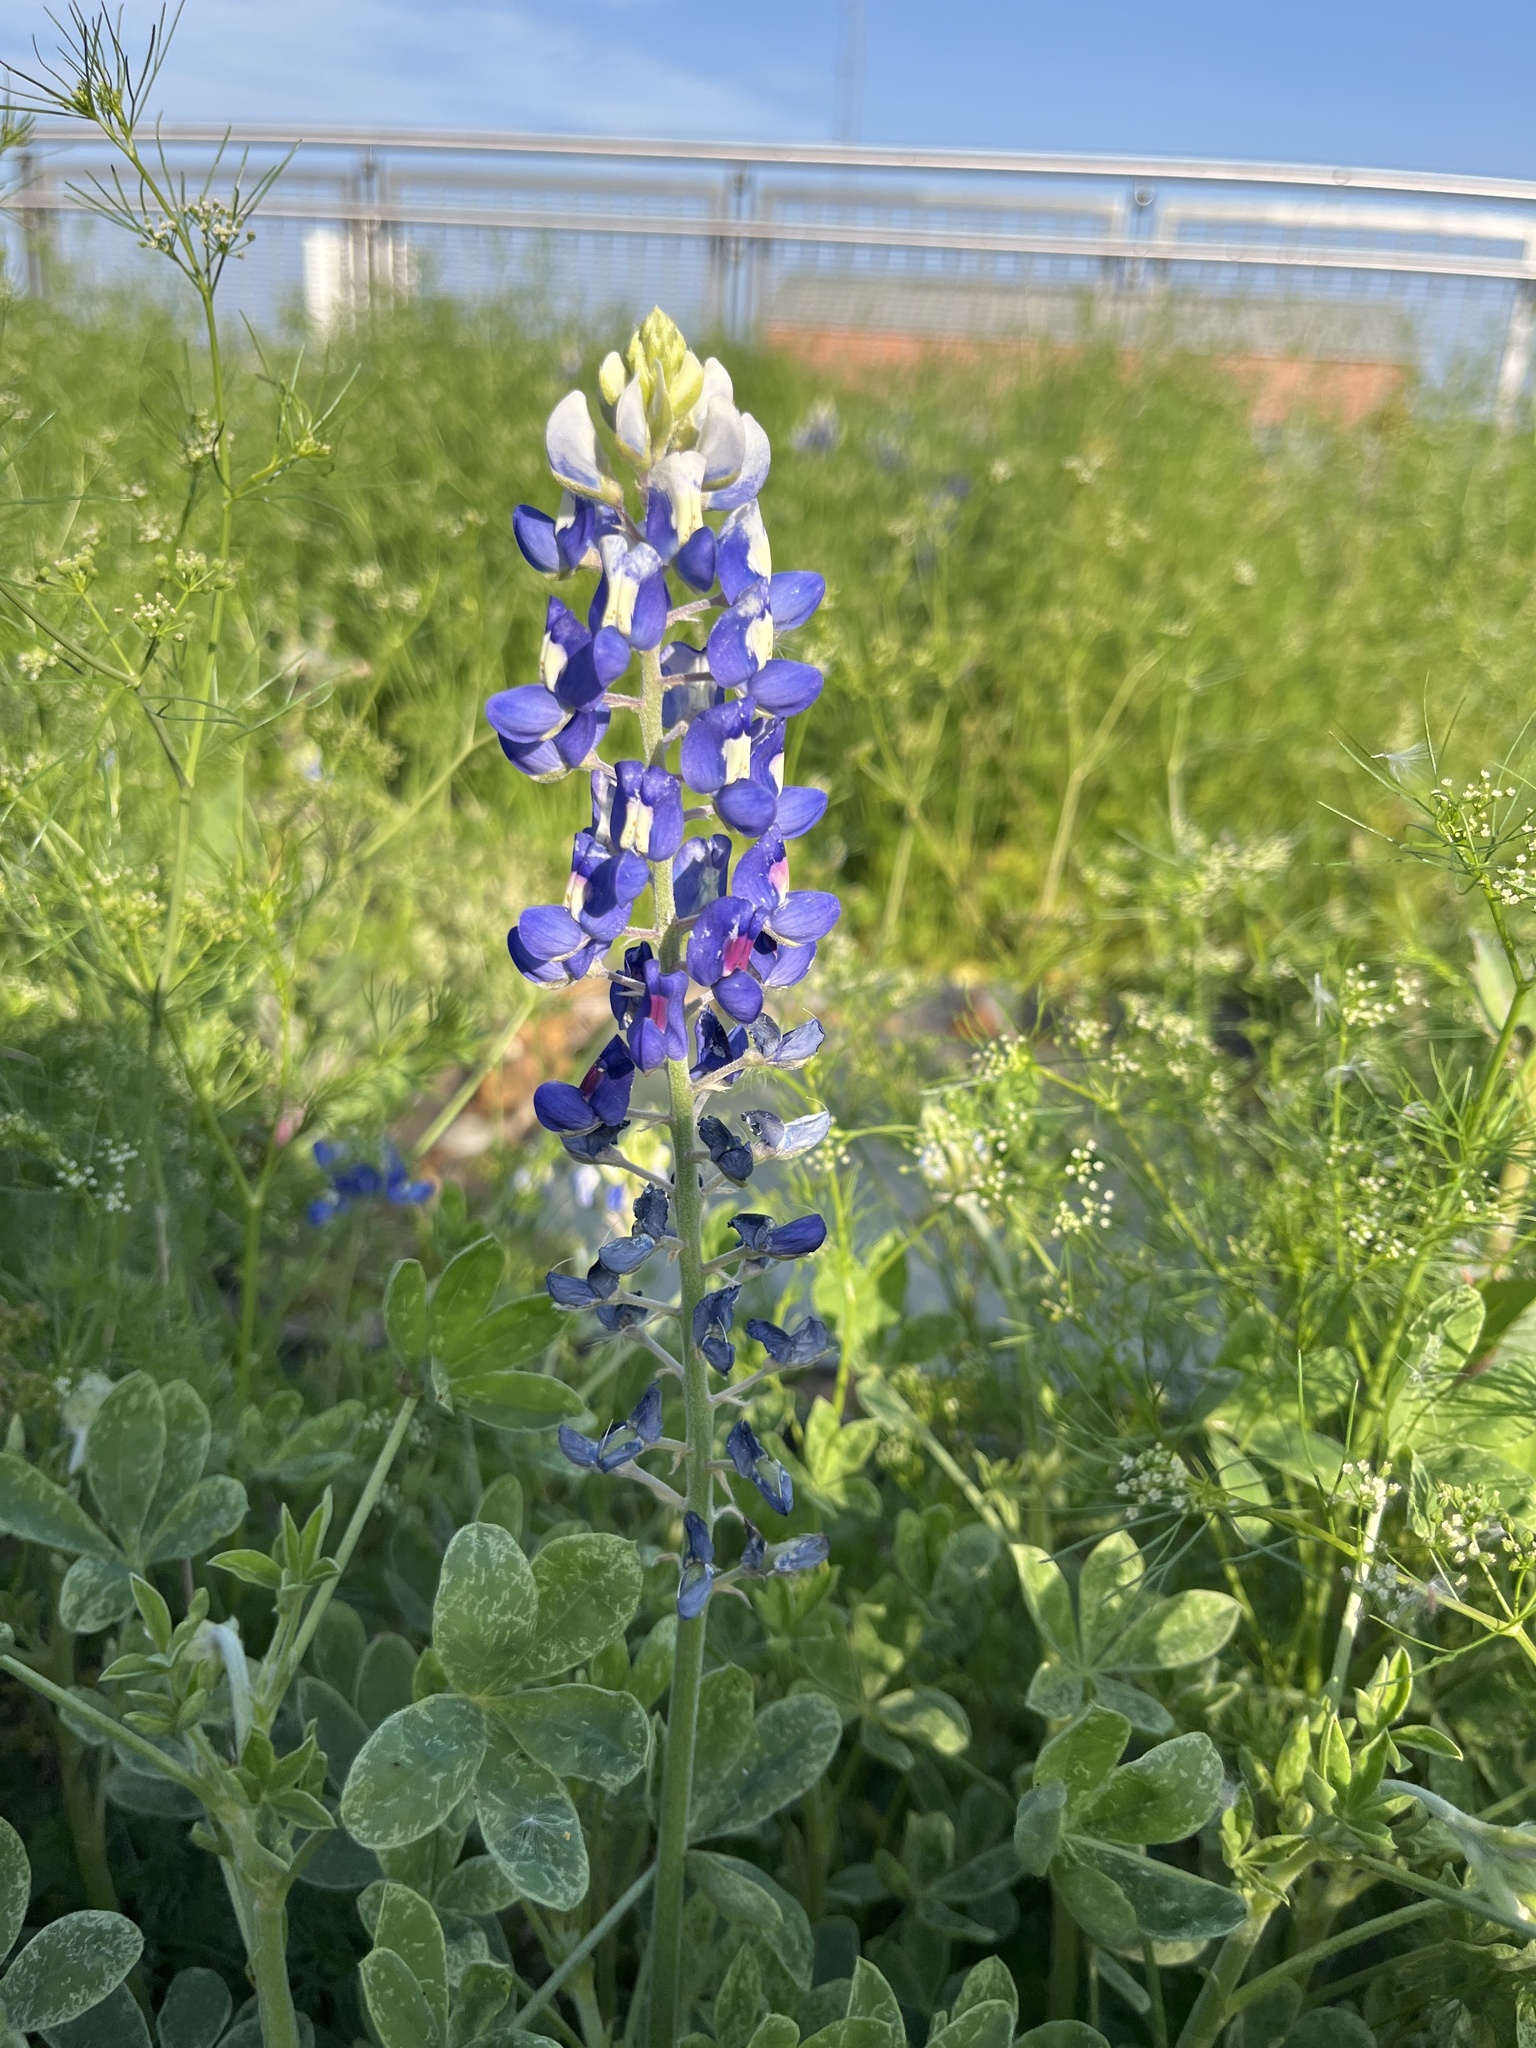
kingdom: Plantae
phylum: Tracheophyta
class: Magnoliopsida
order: Fabales
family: Fabaceae
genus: Lupinus
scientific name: Lupinus texensis
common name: Texas bluebonnet
